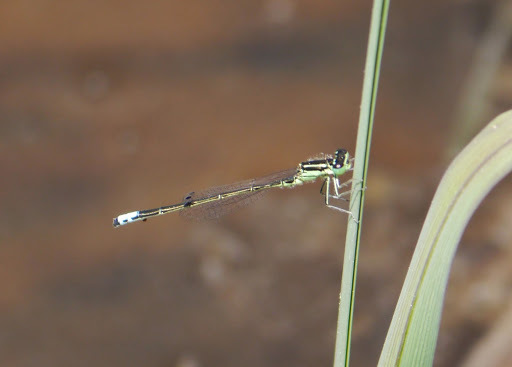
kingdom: Animalia
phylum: Arthropoda
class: Insecta
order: Odonata
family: Coenagrionidae
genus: Ischnura
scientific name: Ischnura verticalis
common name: Eastern forktail
